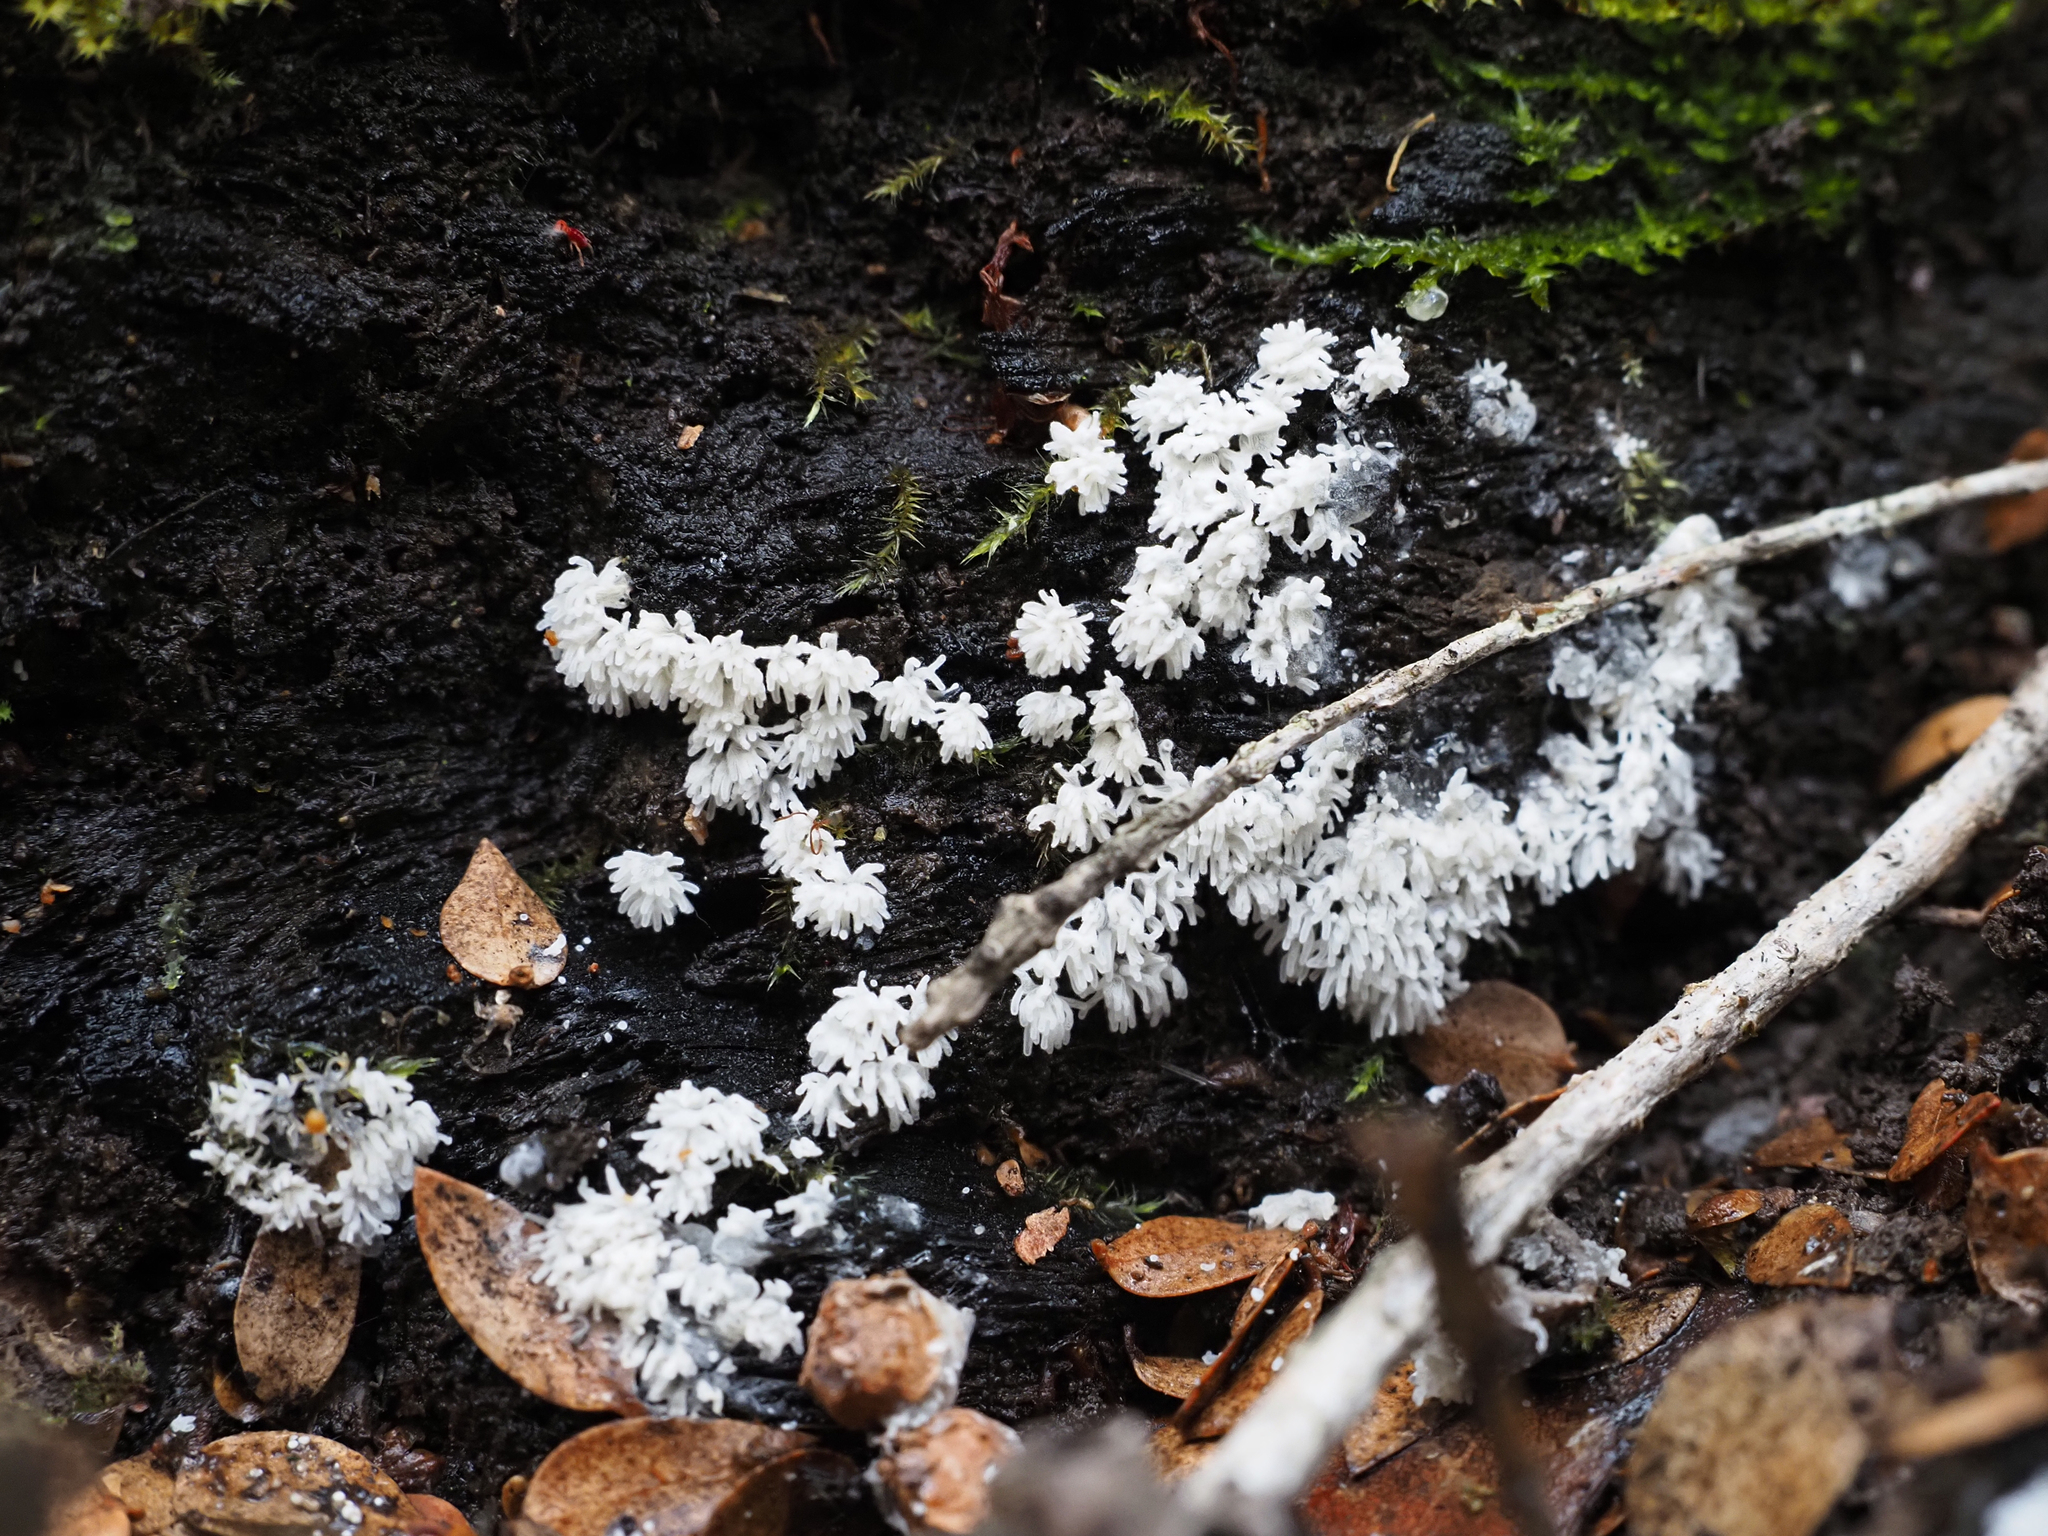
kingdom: Protozoa
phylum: Mycetozoa
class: Protosteliomycetes
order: Ceratiomyxales
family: Ceratiomyxaceae
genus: Ceratiomyxa
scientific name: Ceratiomyxa fruticulosa
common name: Honeycomb coral slime mold
